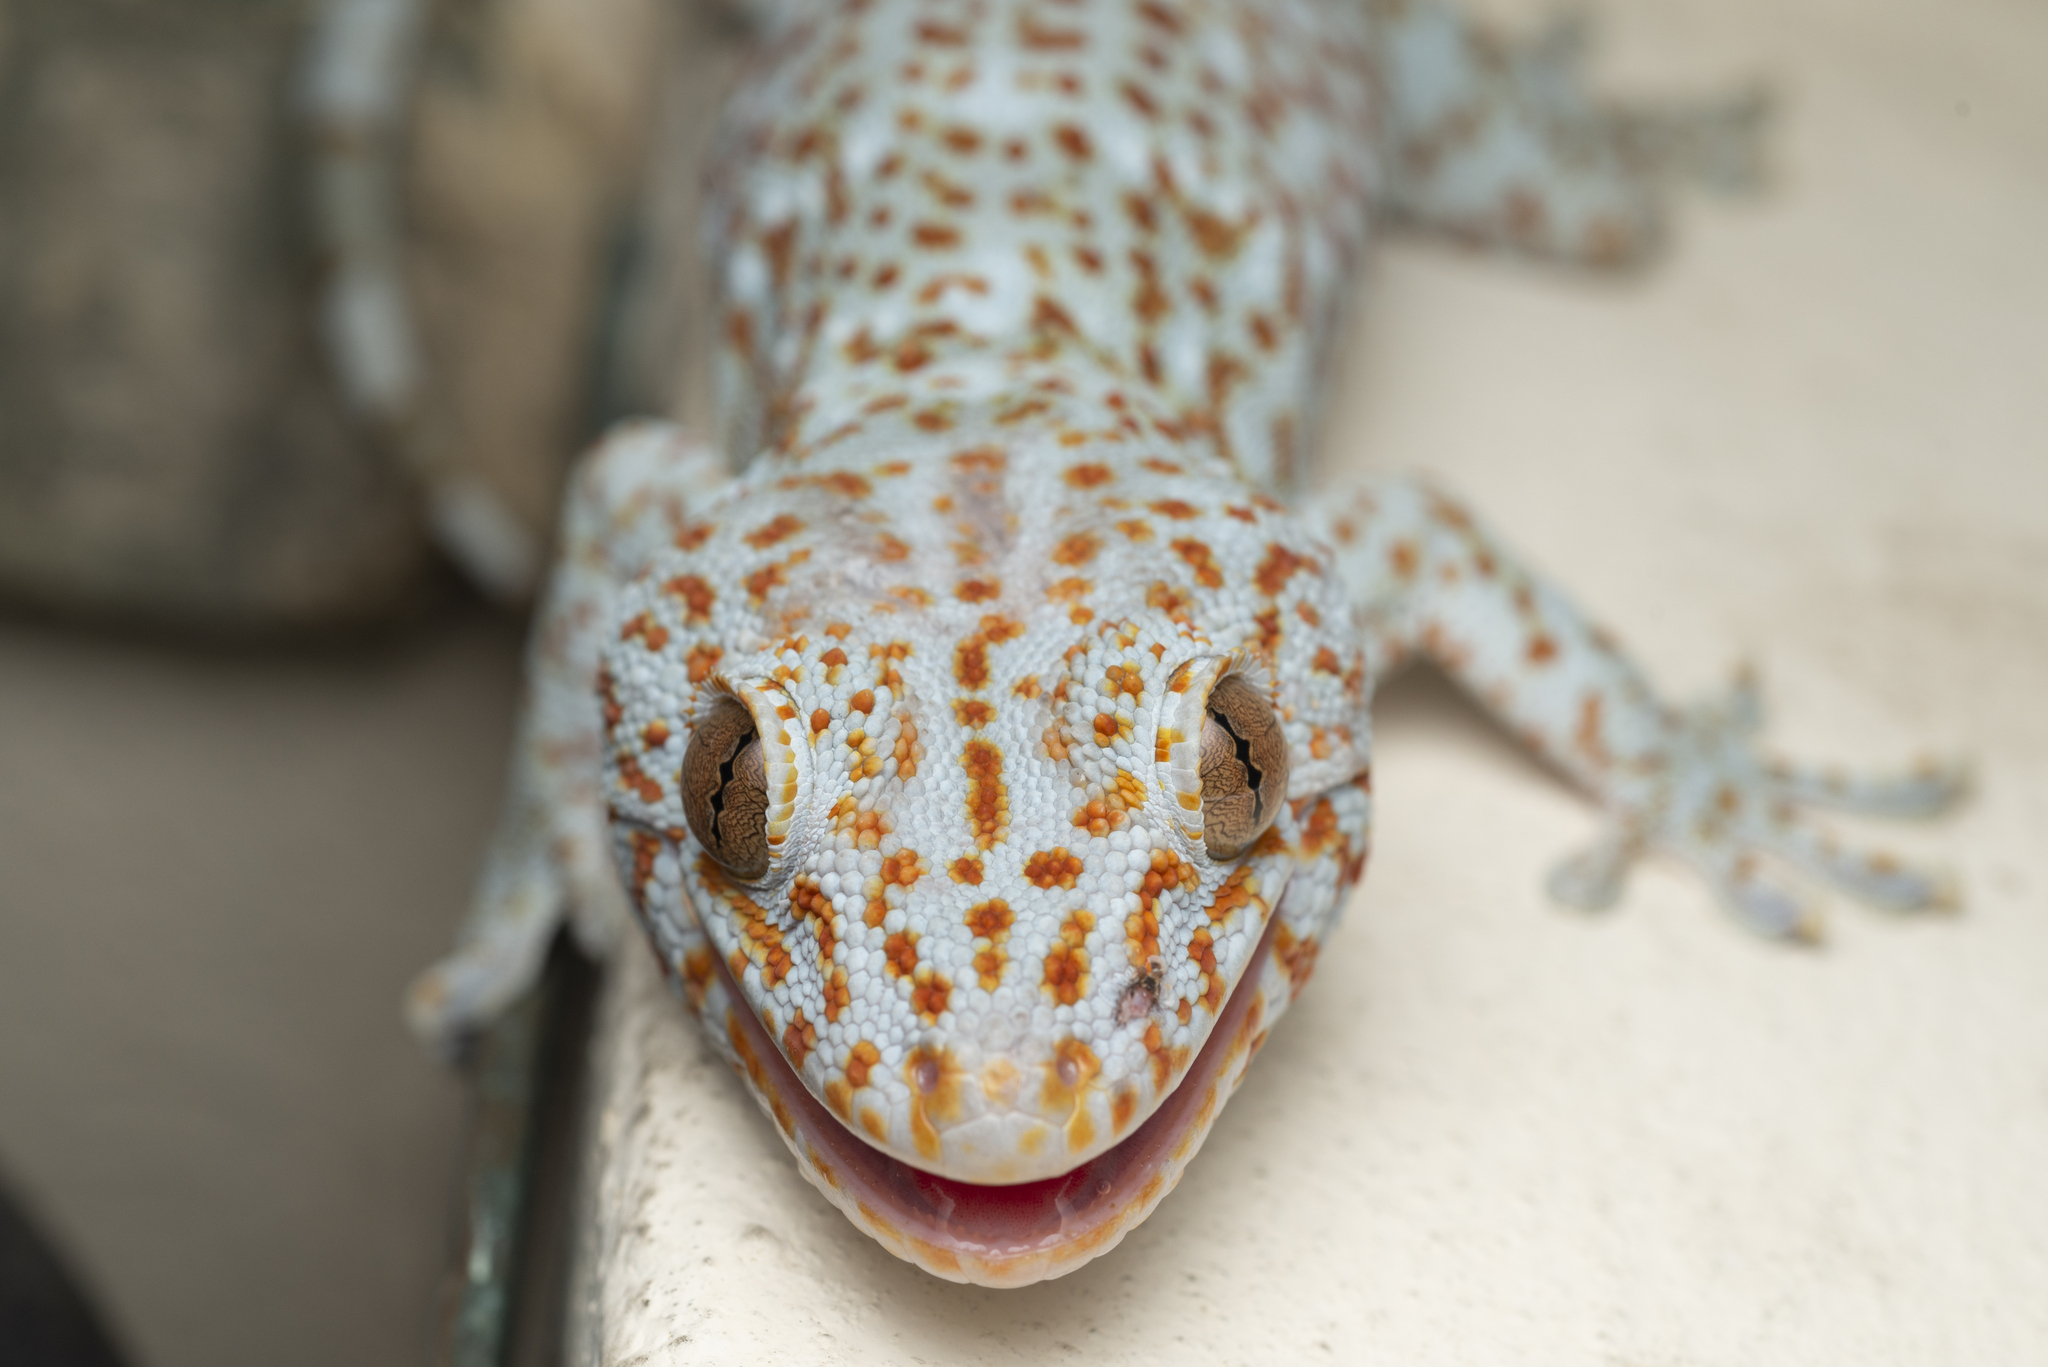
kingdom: Animalia
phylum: Chordata
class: Squamata
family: Gekkonidae
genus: Gekko
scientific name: Gekko gecko
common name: Tokay gecko
